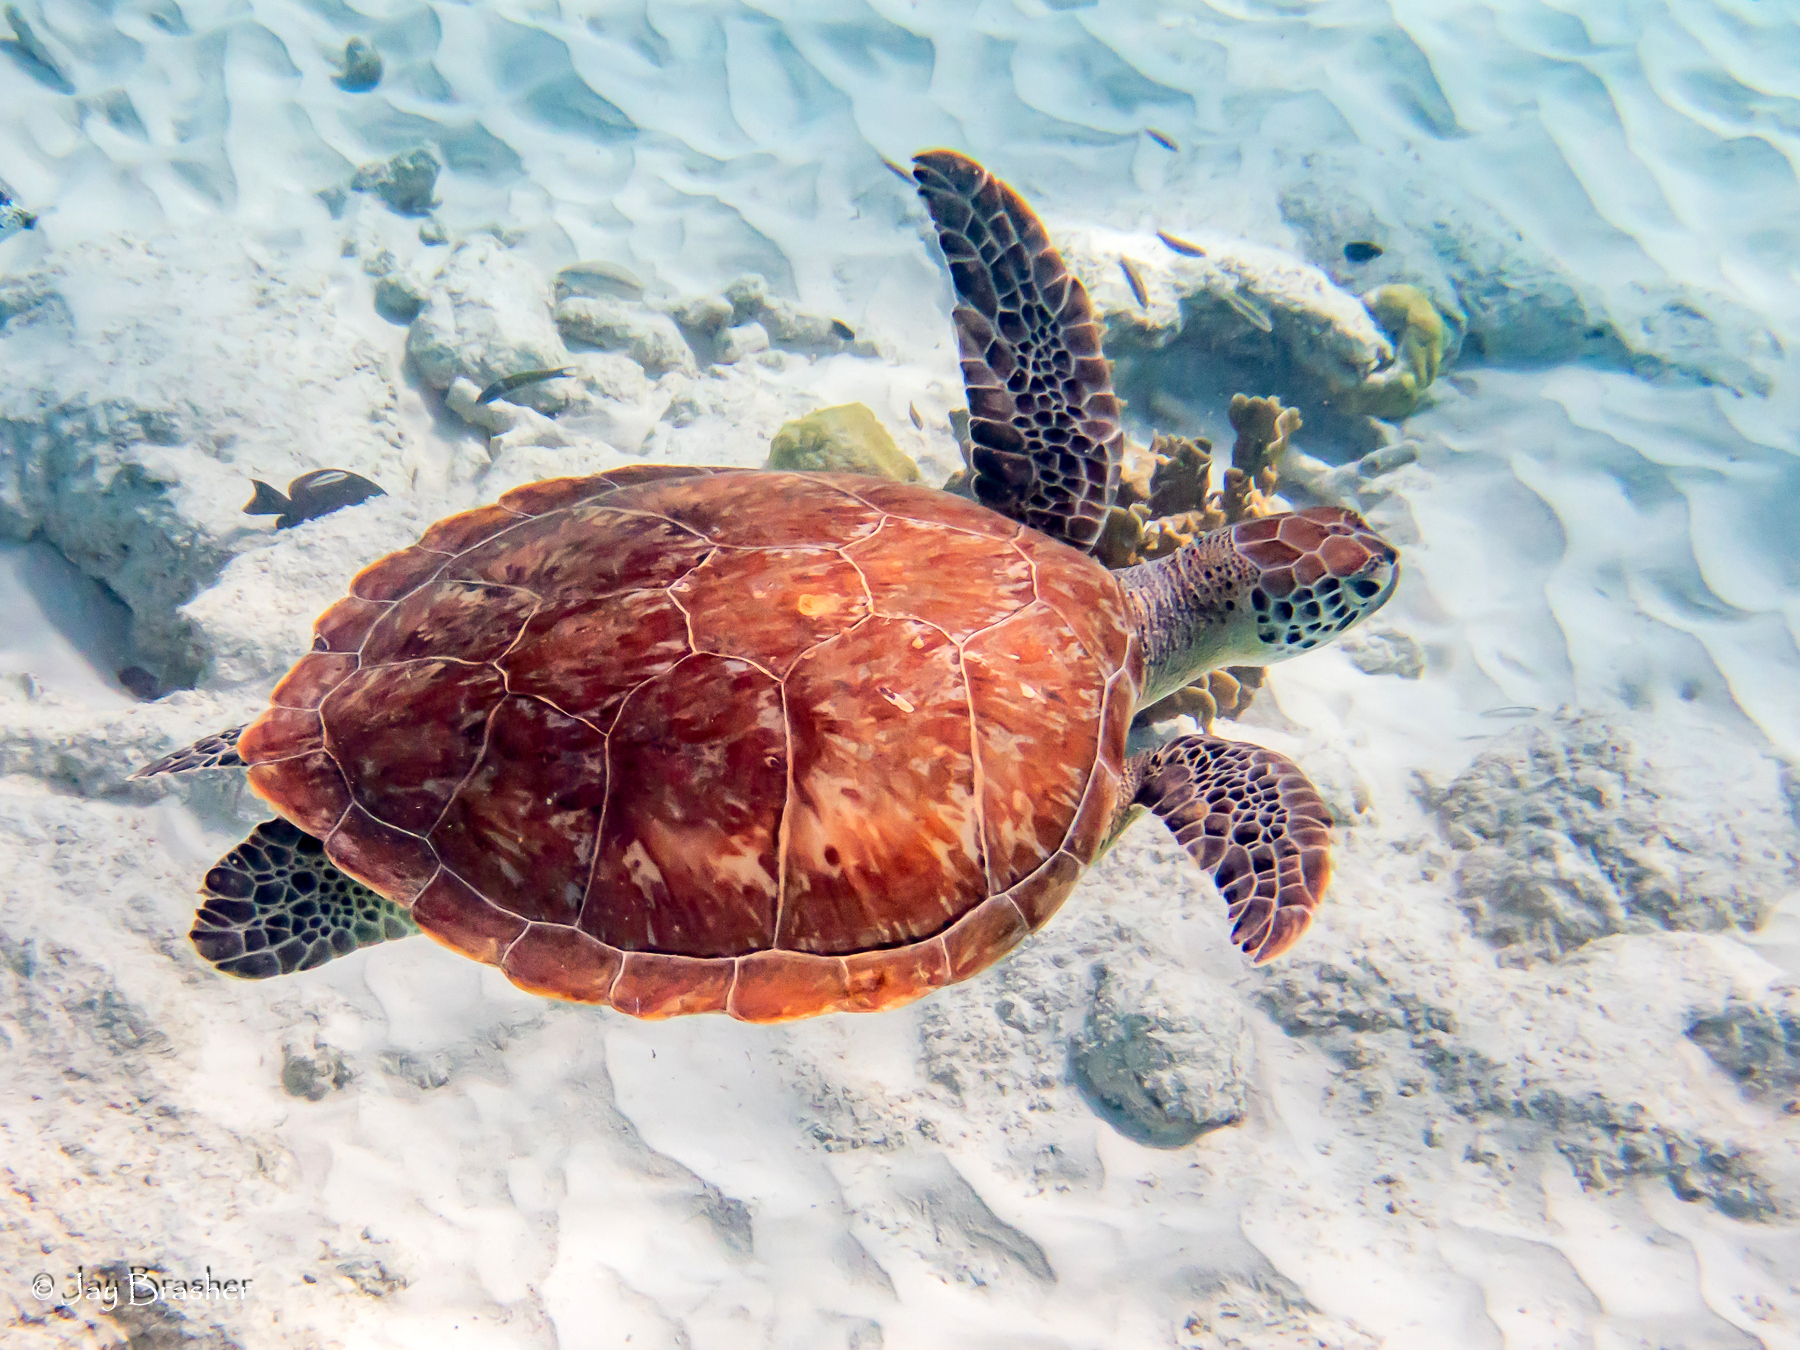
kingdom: Animalia
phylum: Chordata
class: Testudines
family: Cheloniidae
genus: Chelonia
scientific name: Chelonia mydas
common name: Green turtle
